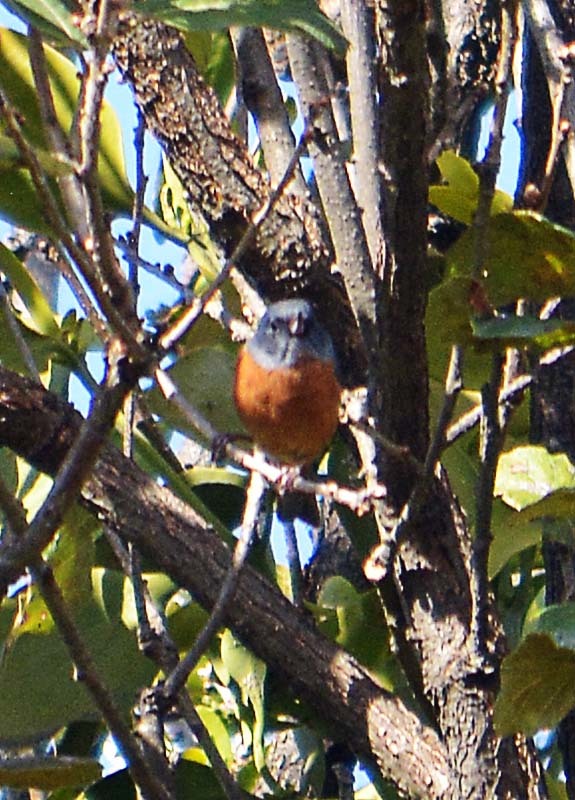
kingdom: Animalia
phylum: Chordata
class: Aves
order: Passeriformes
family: Thraupidae
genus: Diglossa
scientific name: Diglossa baritula
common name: Cinnamon-bellied flowerpiercer
